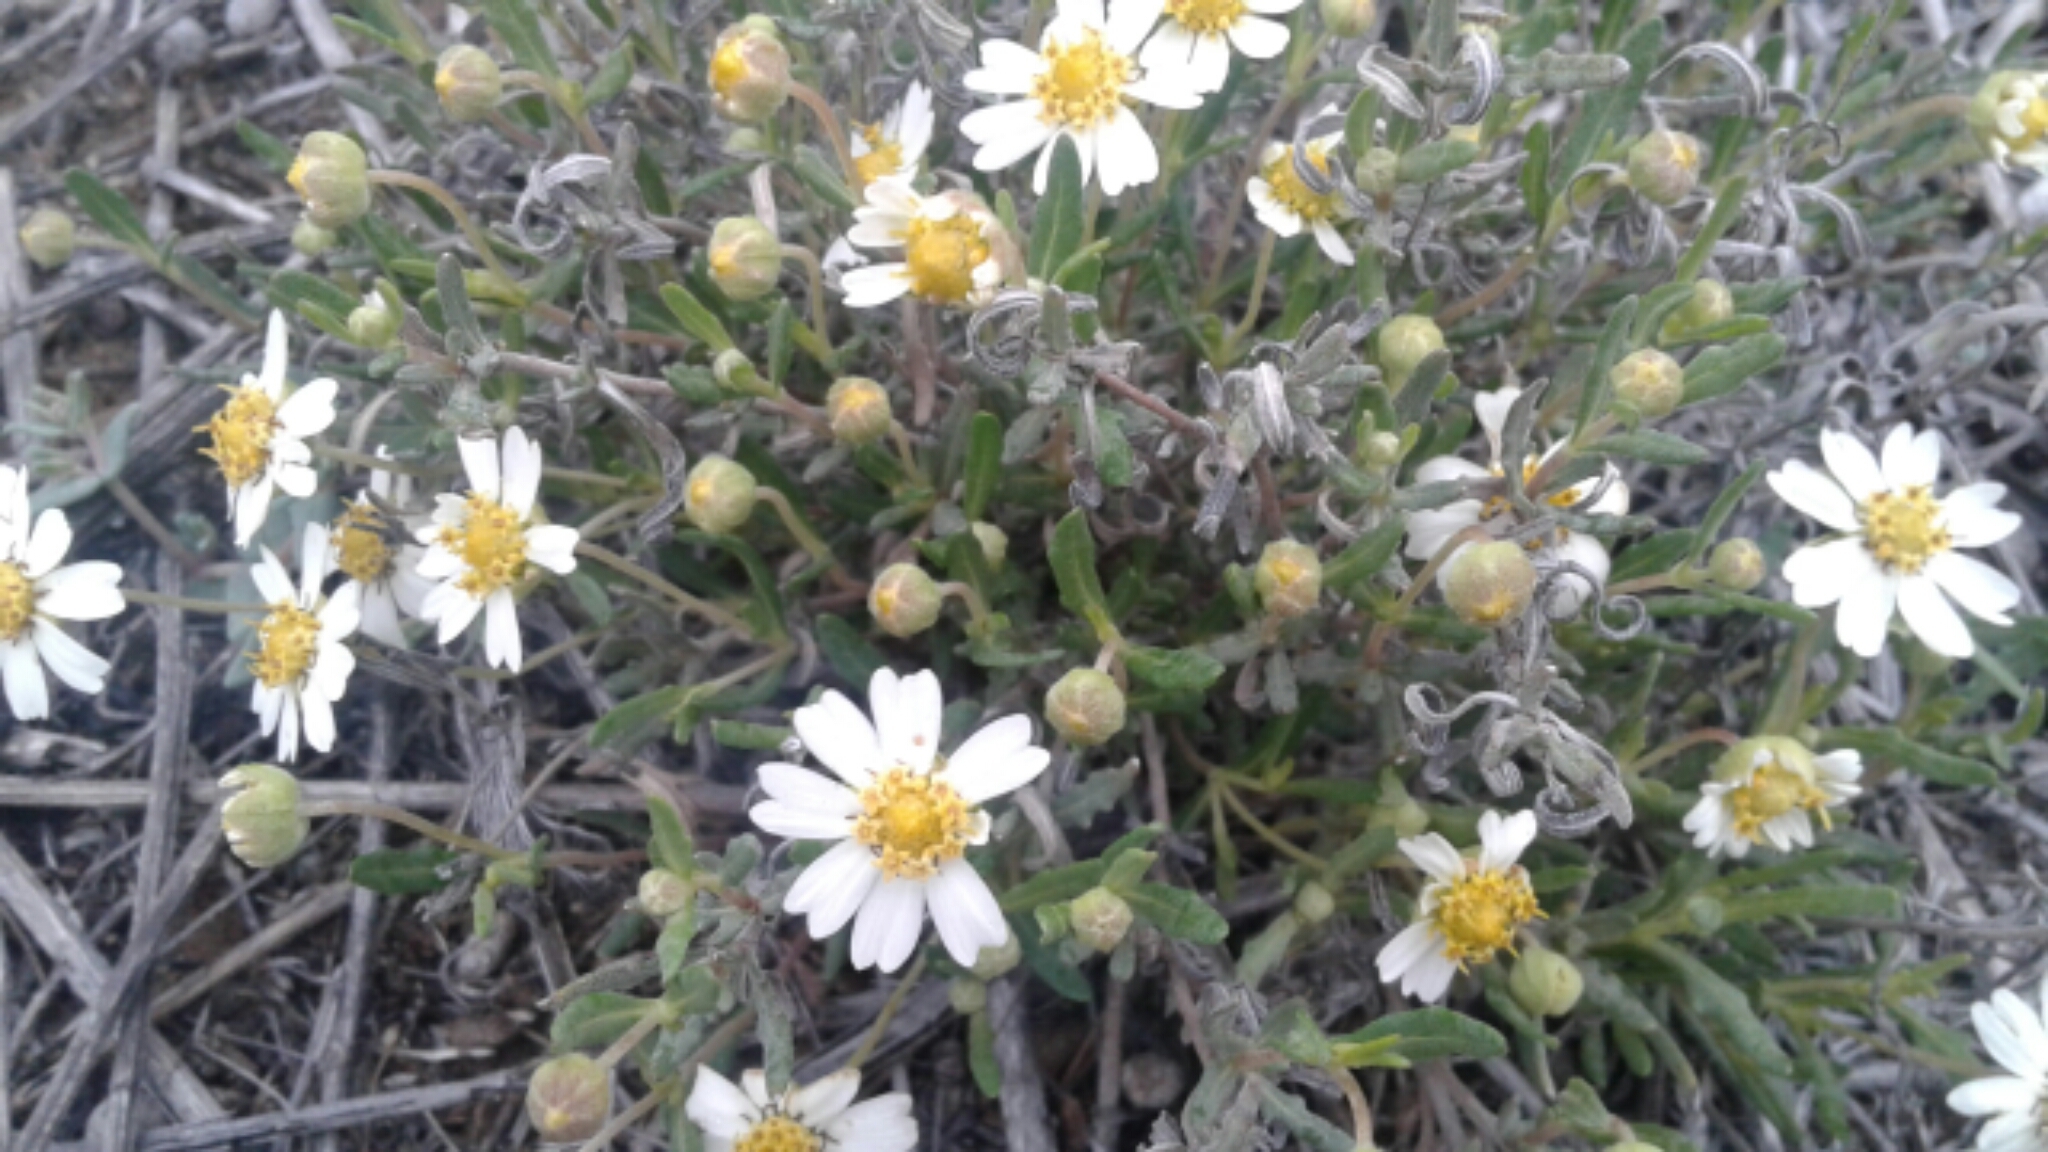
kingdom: Plantae
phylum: Tracheophyta
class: Magnoliopsida
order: Asterales
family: Asteraceae
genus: Melampodium
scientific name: Melampodium leucanthum
